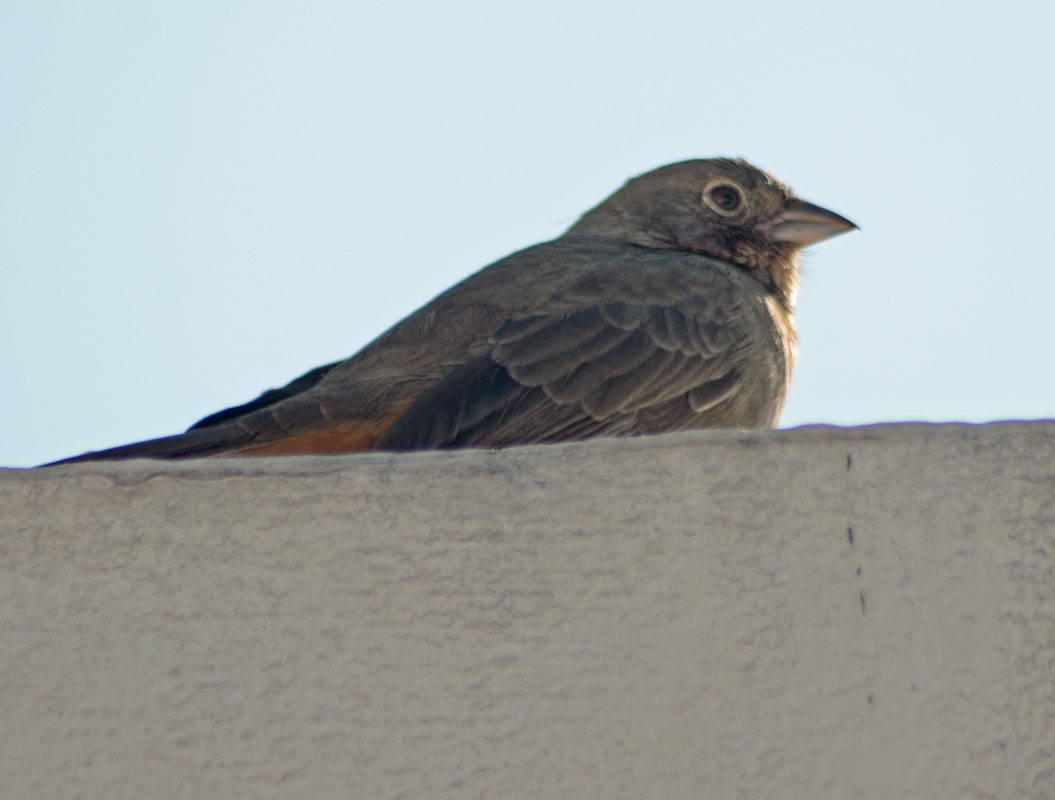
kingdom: Animalia
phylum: Chordata
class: Aves
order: Passeriformes
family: Passerellidae
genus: Melozone
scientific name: Melozone fusca
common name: Canyon towhee
